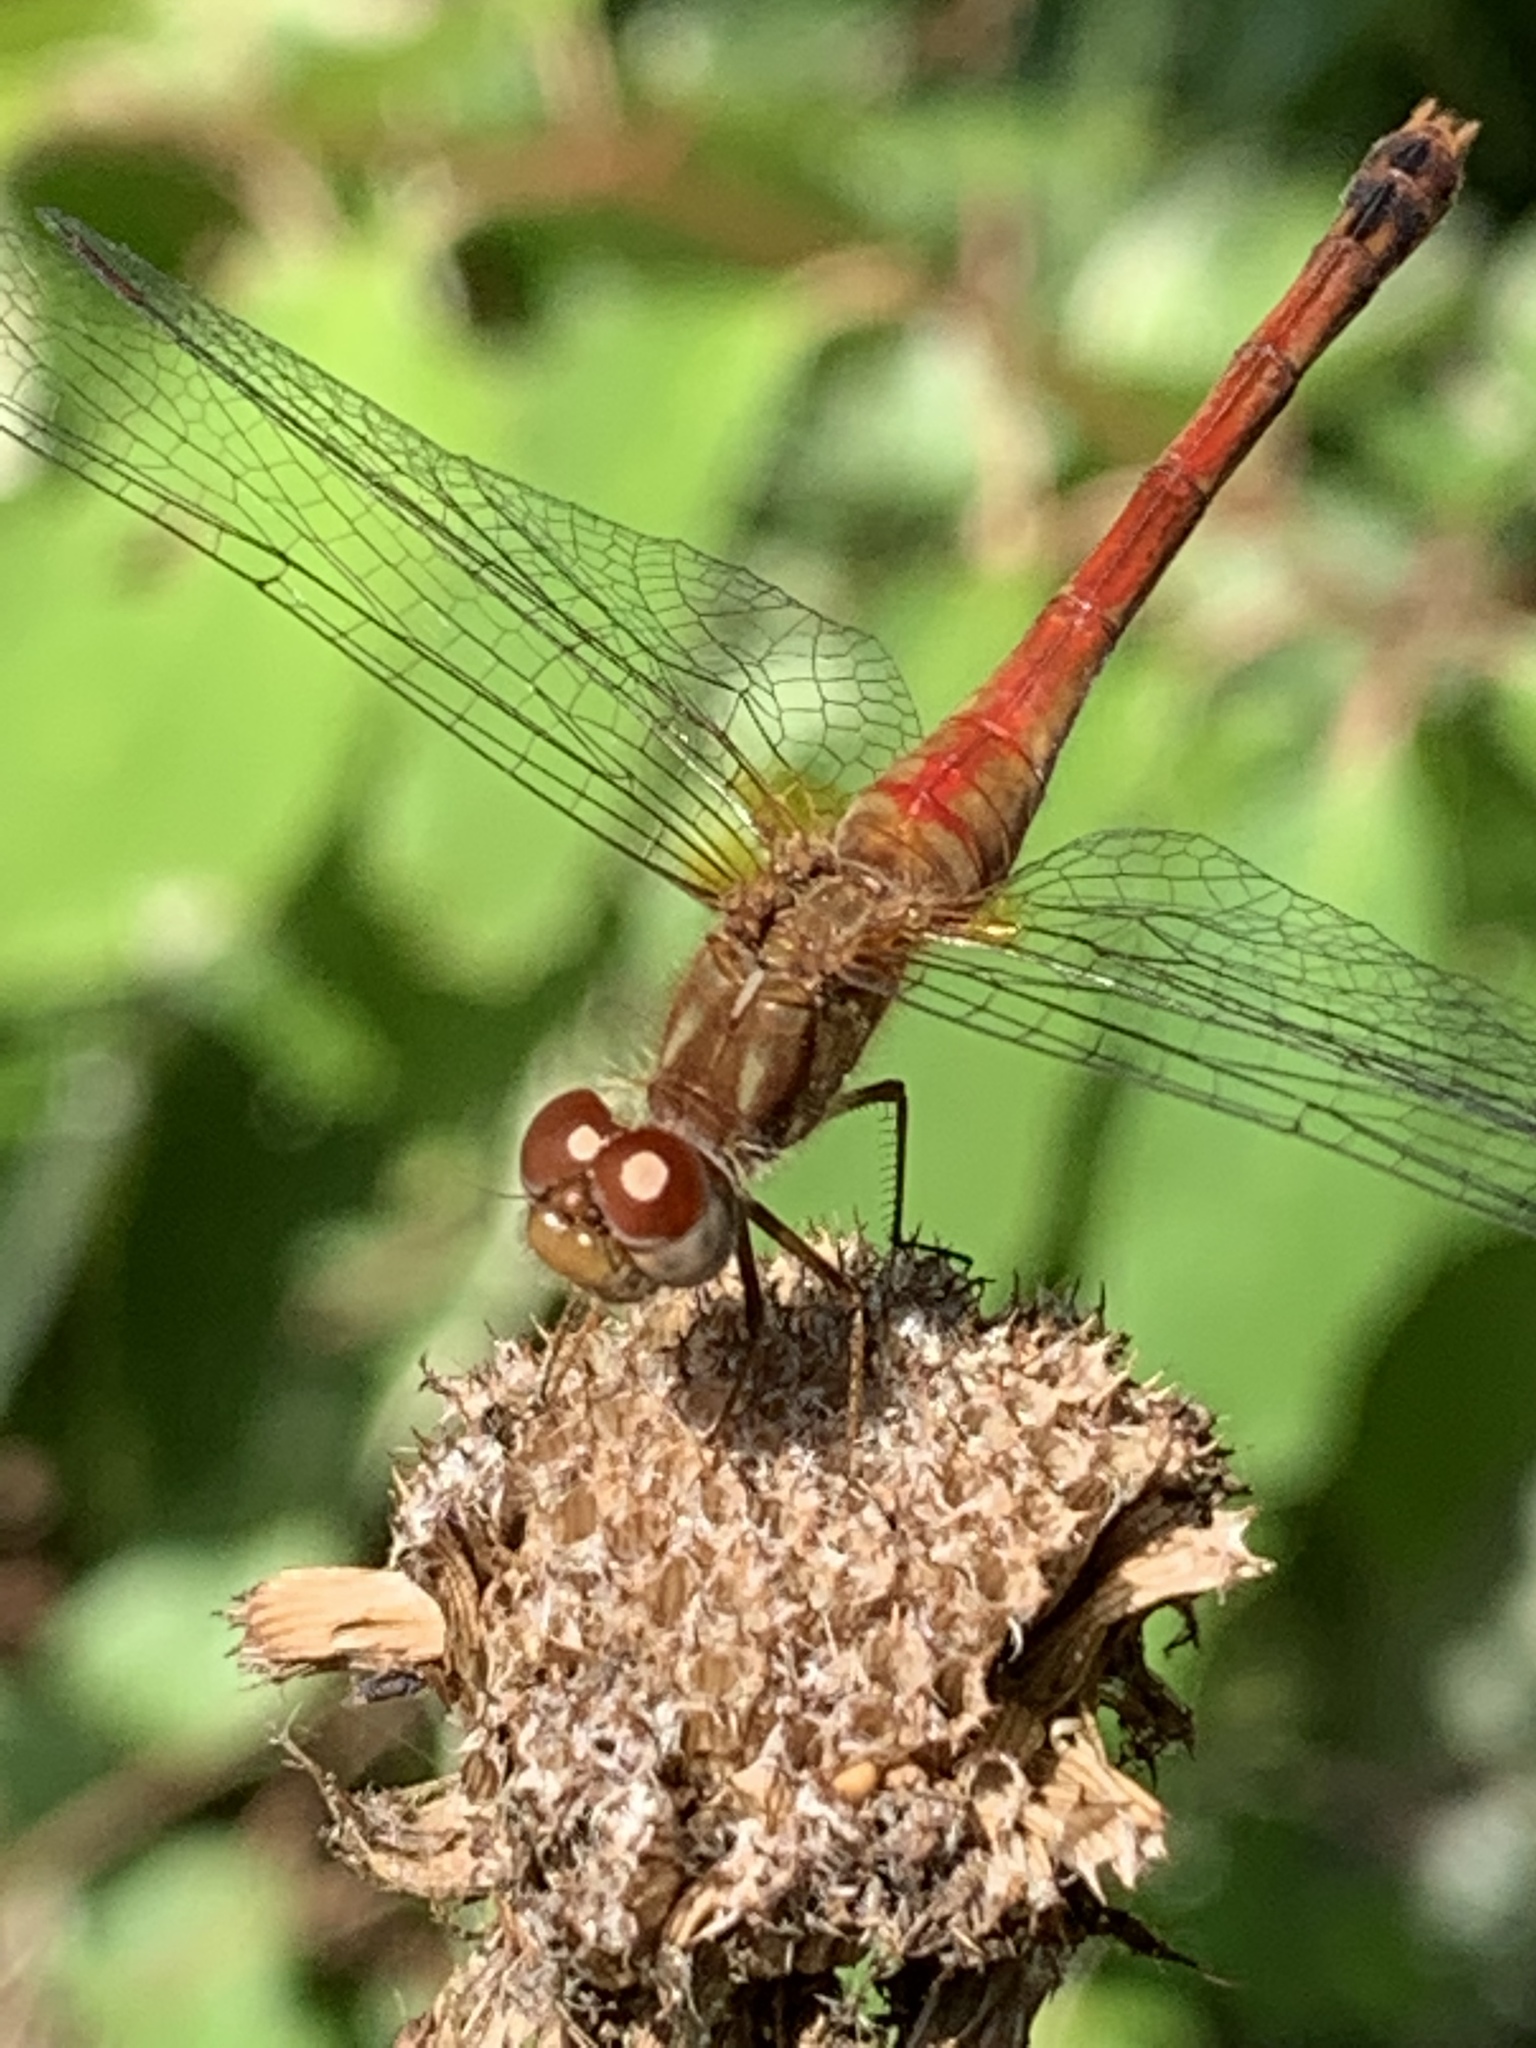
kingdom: Animalia
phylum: Arthropoda
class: Insecta
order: Odonata
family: Libellulidae
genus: Sympetrum
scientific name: Sympetrum vicinum
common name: Autumn meadowhawk
